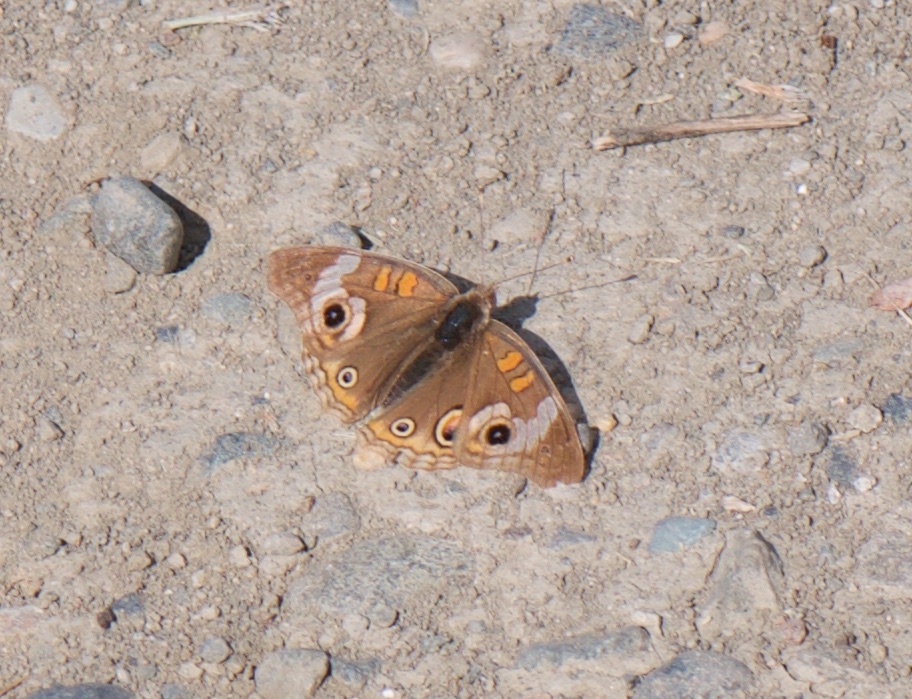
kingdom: Animalia
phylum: Arthropoda
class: Insecta
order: Lepidoptera
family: Nymphalidae
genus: Junonia
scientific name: Junonia grisea
